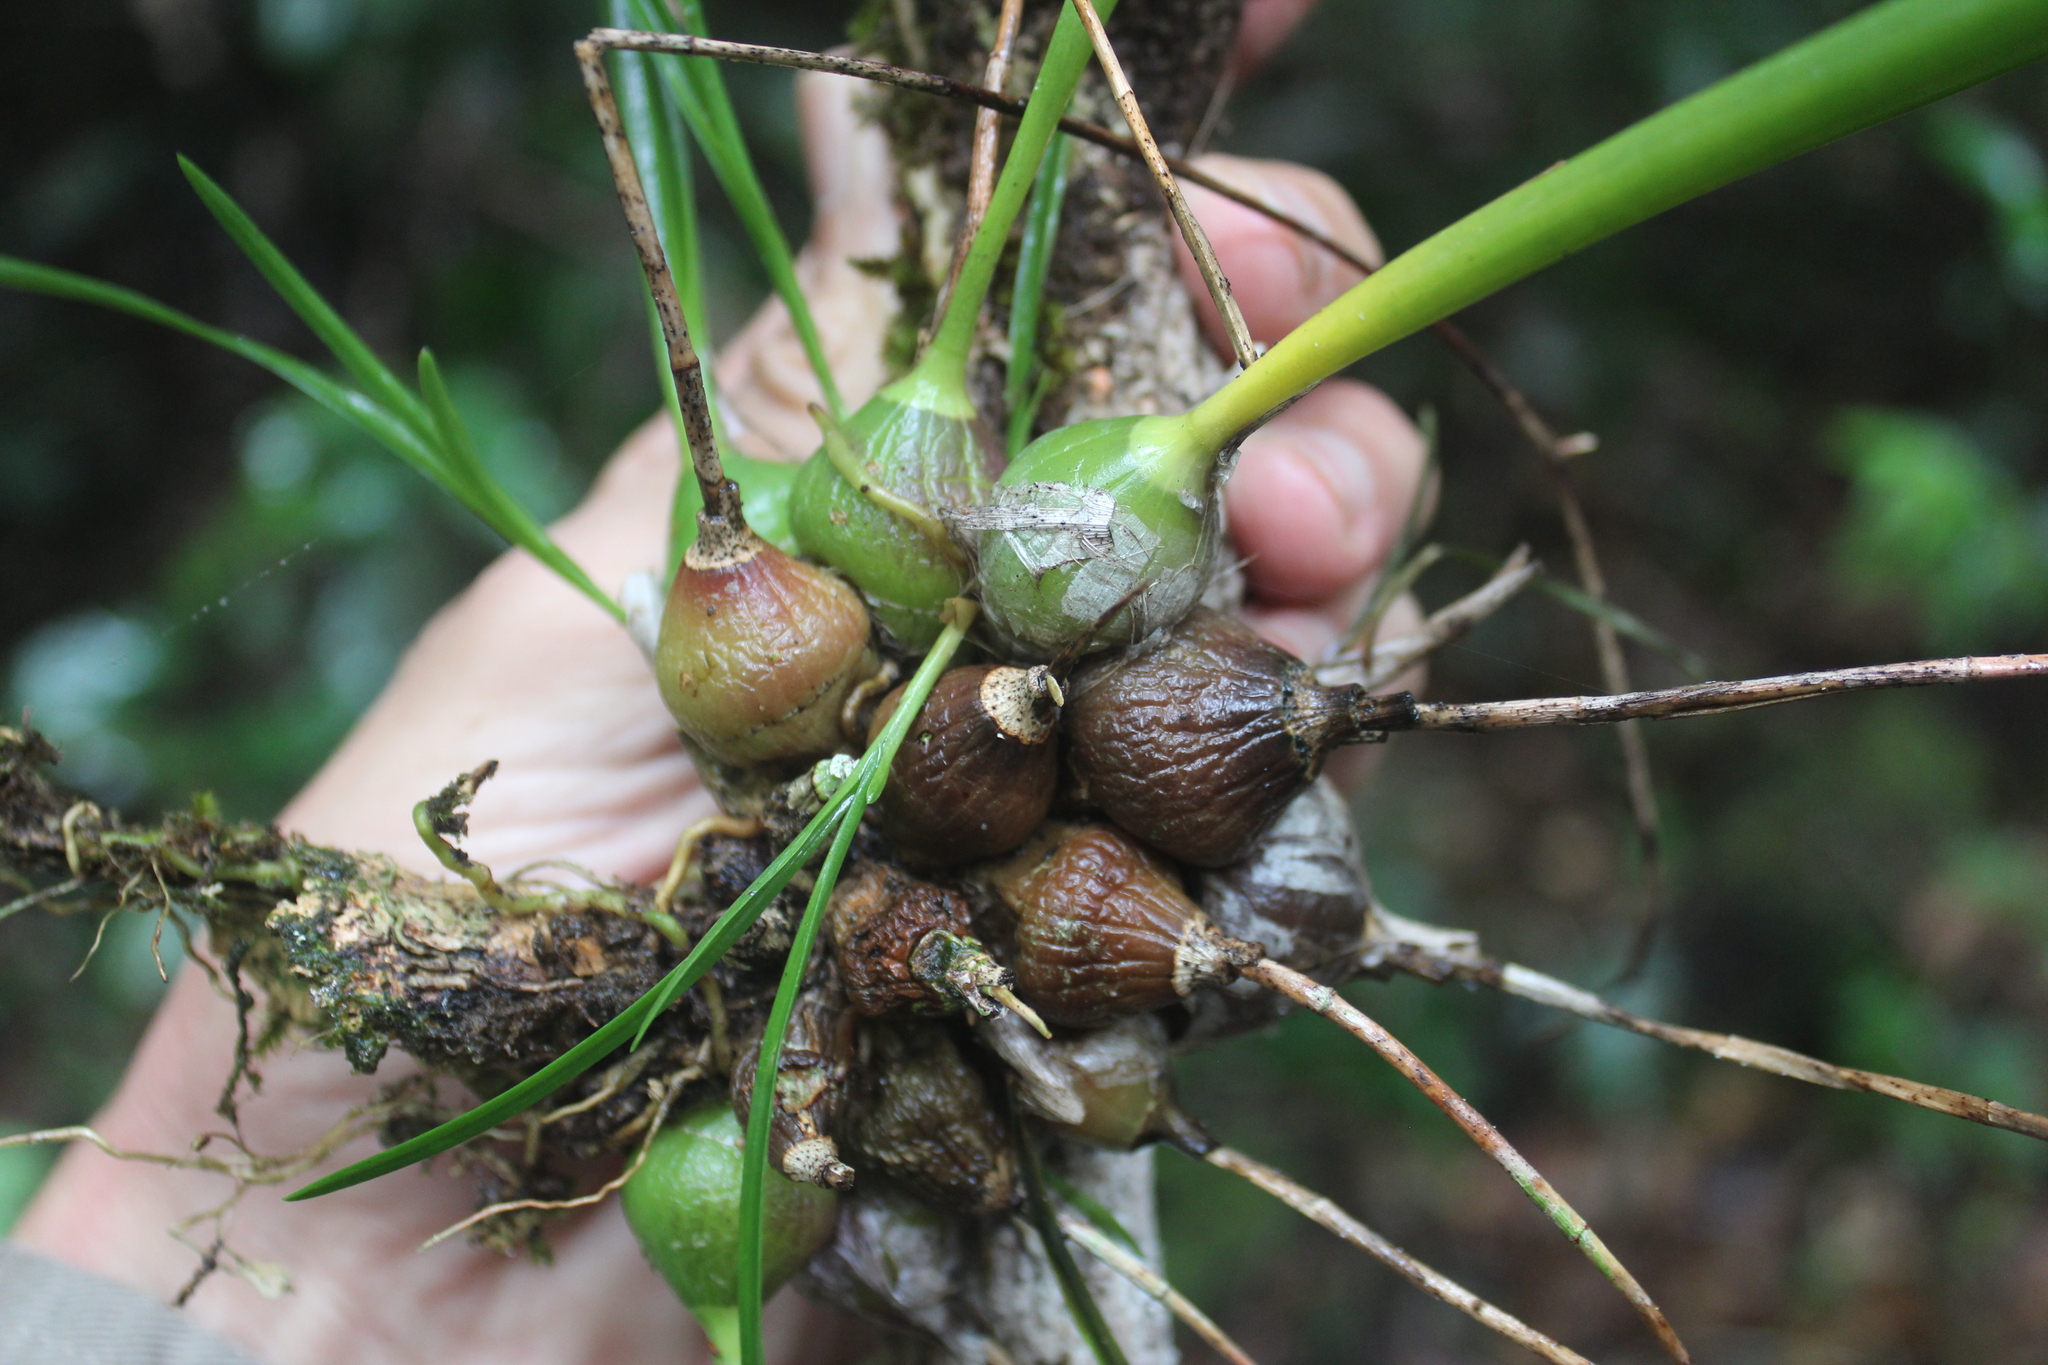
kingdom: Plantae
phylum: Tracheophyta
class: Liliopsida
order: Asparagales
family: Orchidaceae
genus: Encyclia
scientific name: Encyclia bractescens
